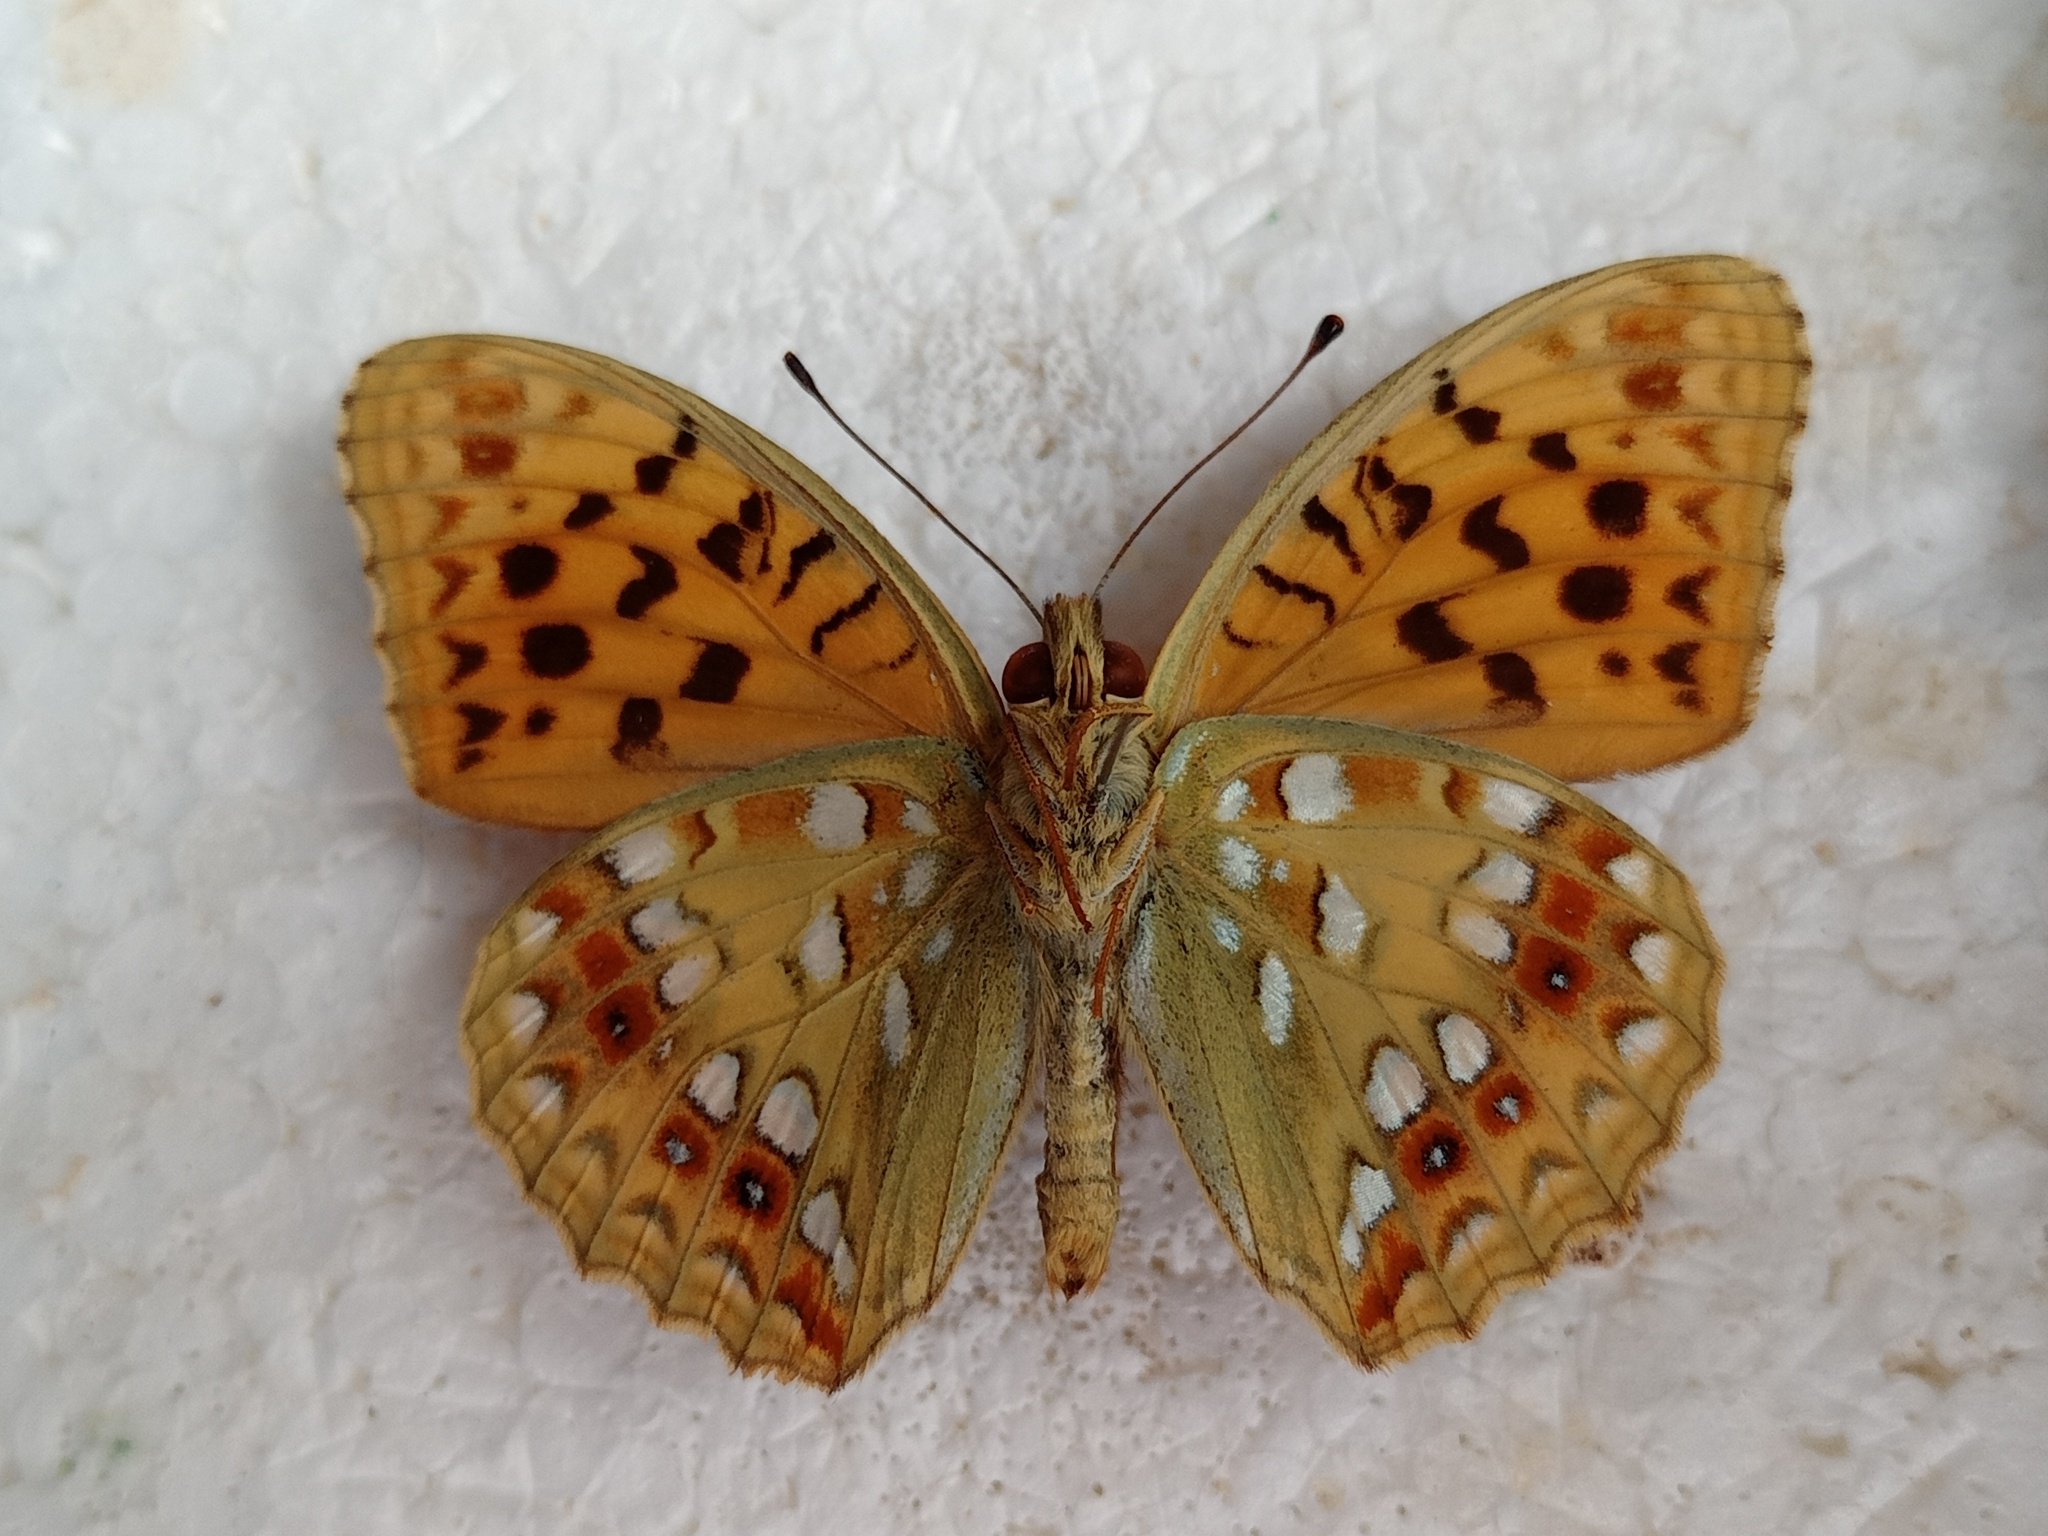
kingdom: Animalia
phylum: Arthropoda
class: Insecta
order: Lepidoptera
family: Nymphalidae
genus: Fabriciana
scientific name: Fabriciana adippe
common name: High brown fritillary
